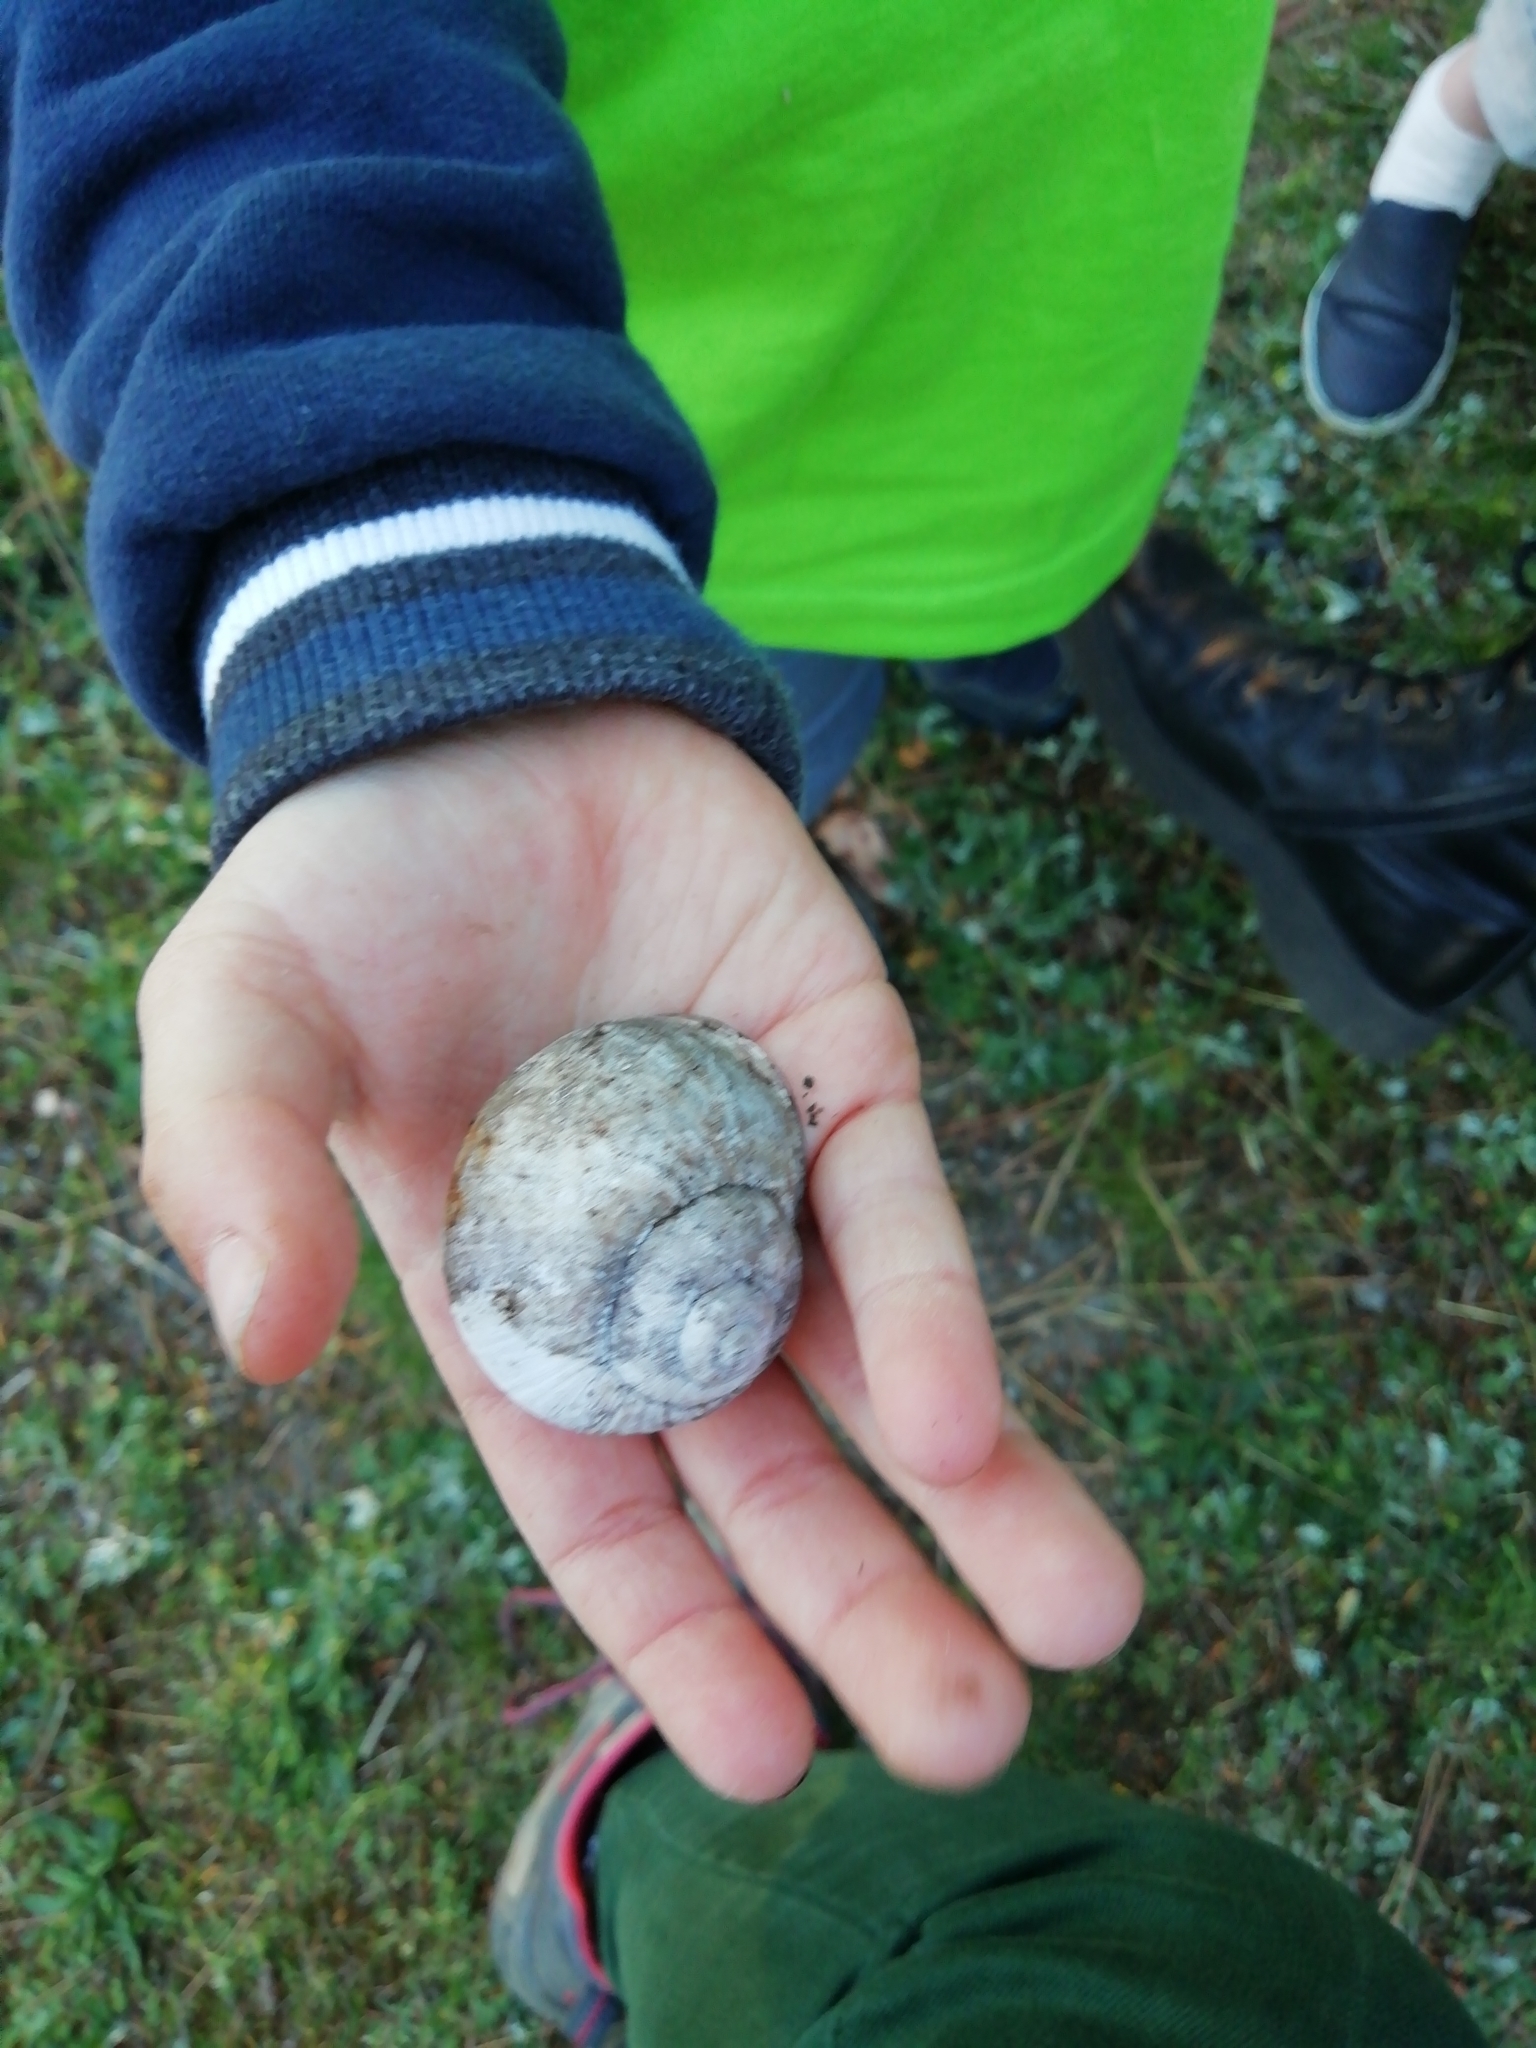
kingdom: Animalia
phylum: Mollusca
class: Gastropoda
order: Stylommatophora
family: Helicidae
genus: Helix
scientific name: Helix pomatia
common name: Roman snail
